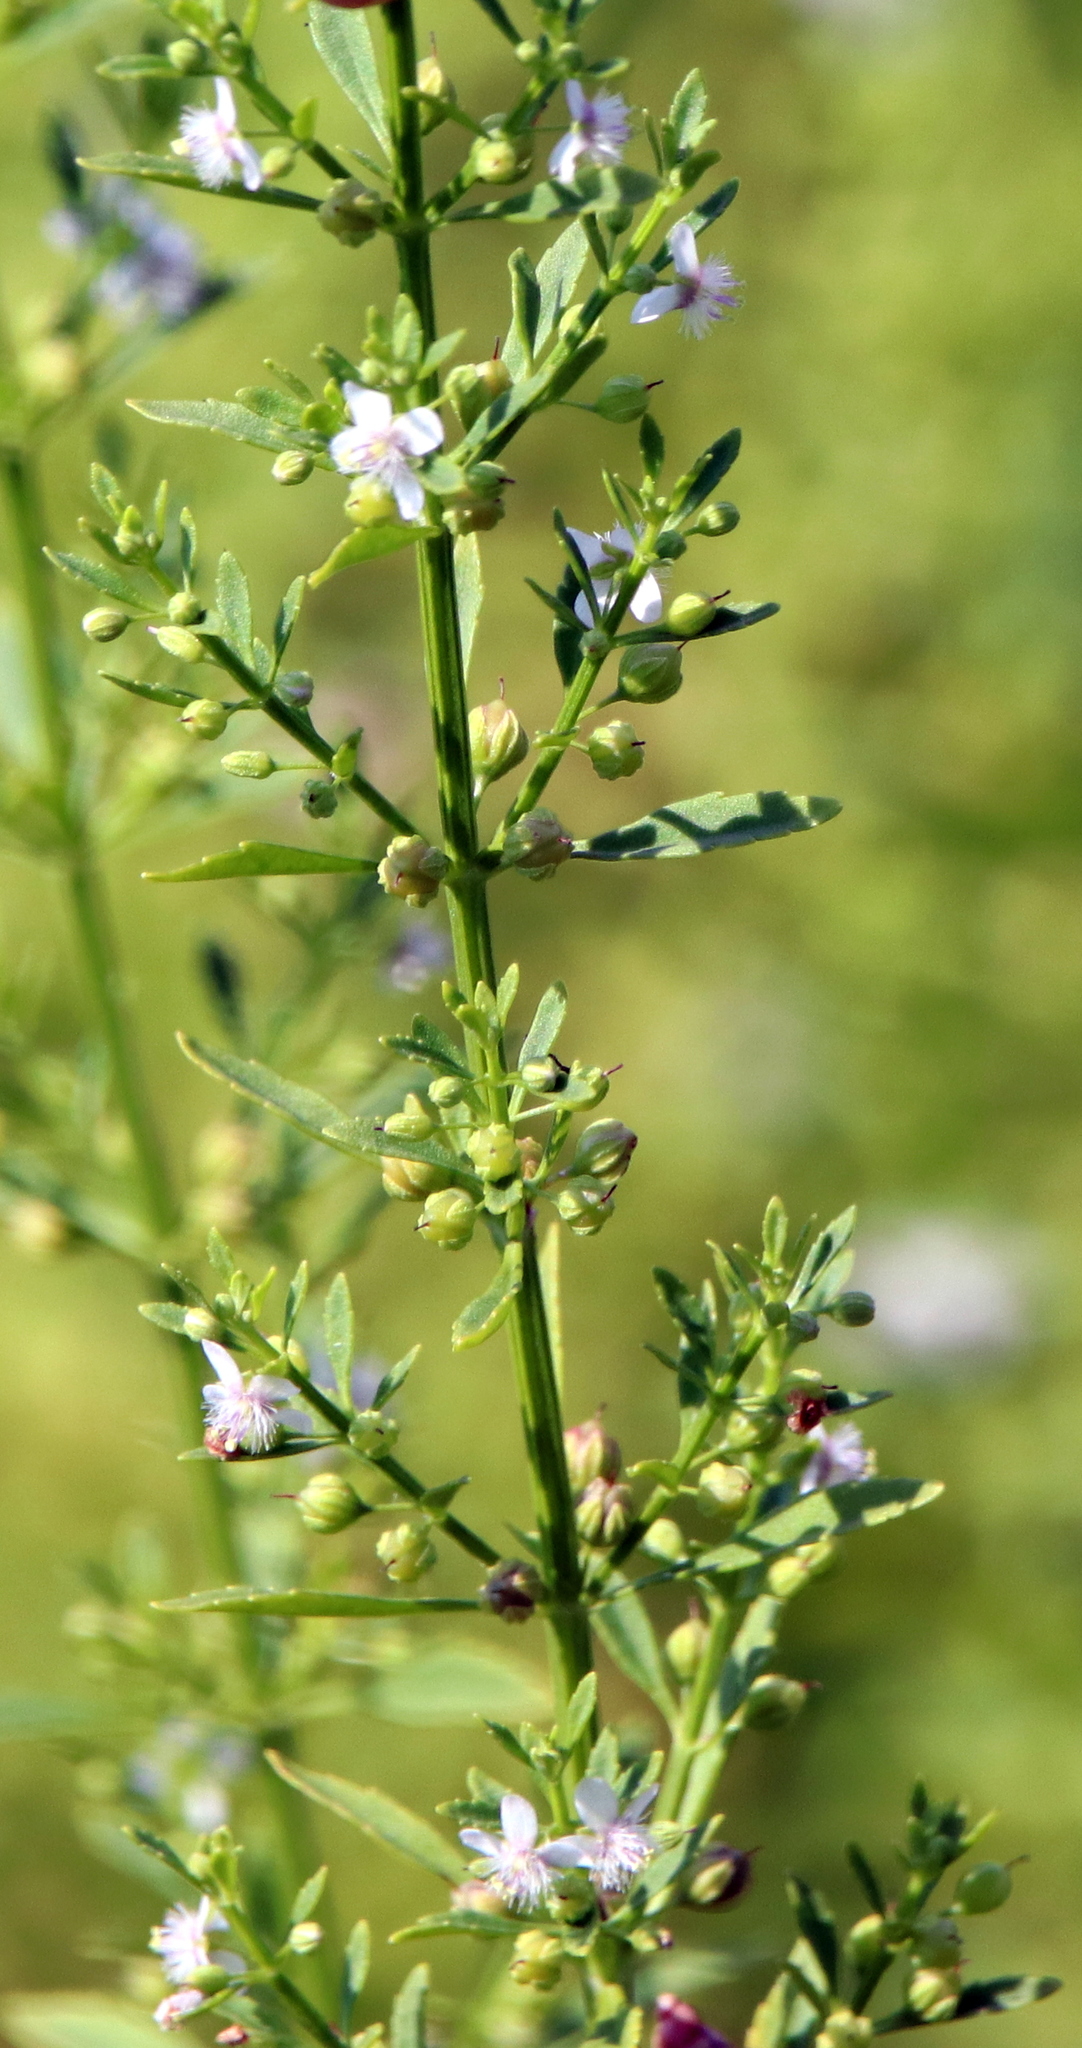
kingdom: Plantae
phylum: Tracheophyta
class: Magnoliopsida
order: Lamiales
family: Plantaginaceae
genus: Scoparia
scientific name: Scoparia dulcis
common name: Scoparia-weed
